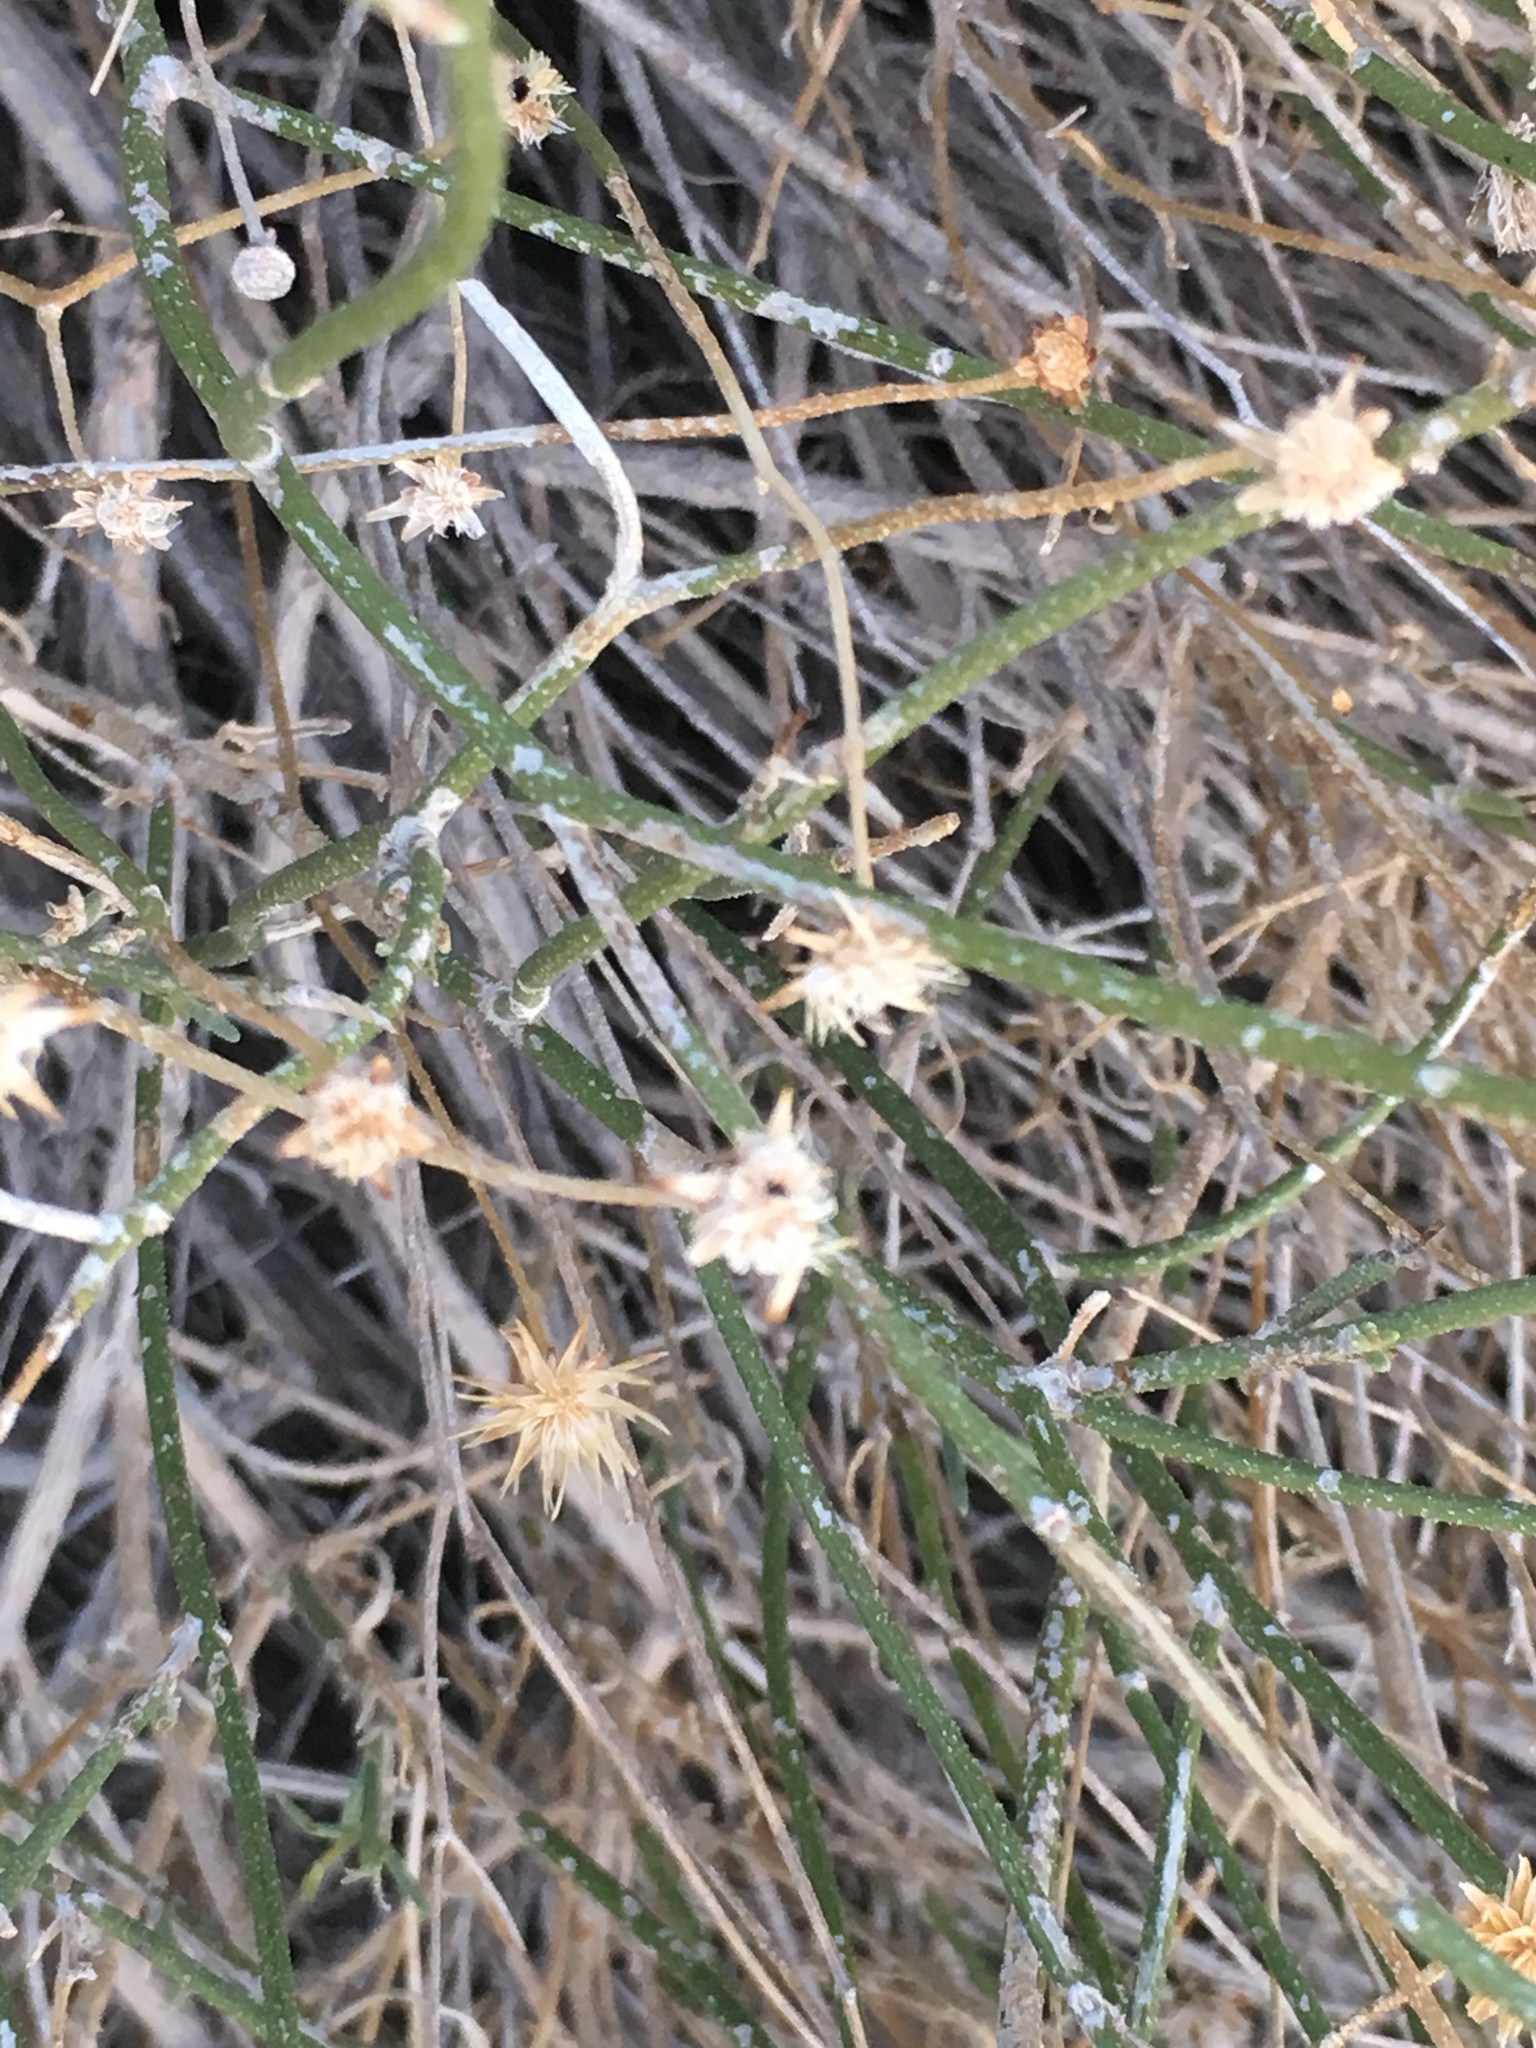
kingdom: Plantae
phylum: Tracheophyta
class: Magnoliopsida
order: Asterales
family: Asteraceae
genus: Bebbia
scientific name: Bebbia juncea
